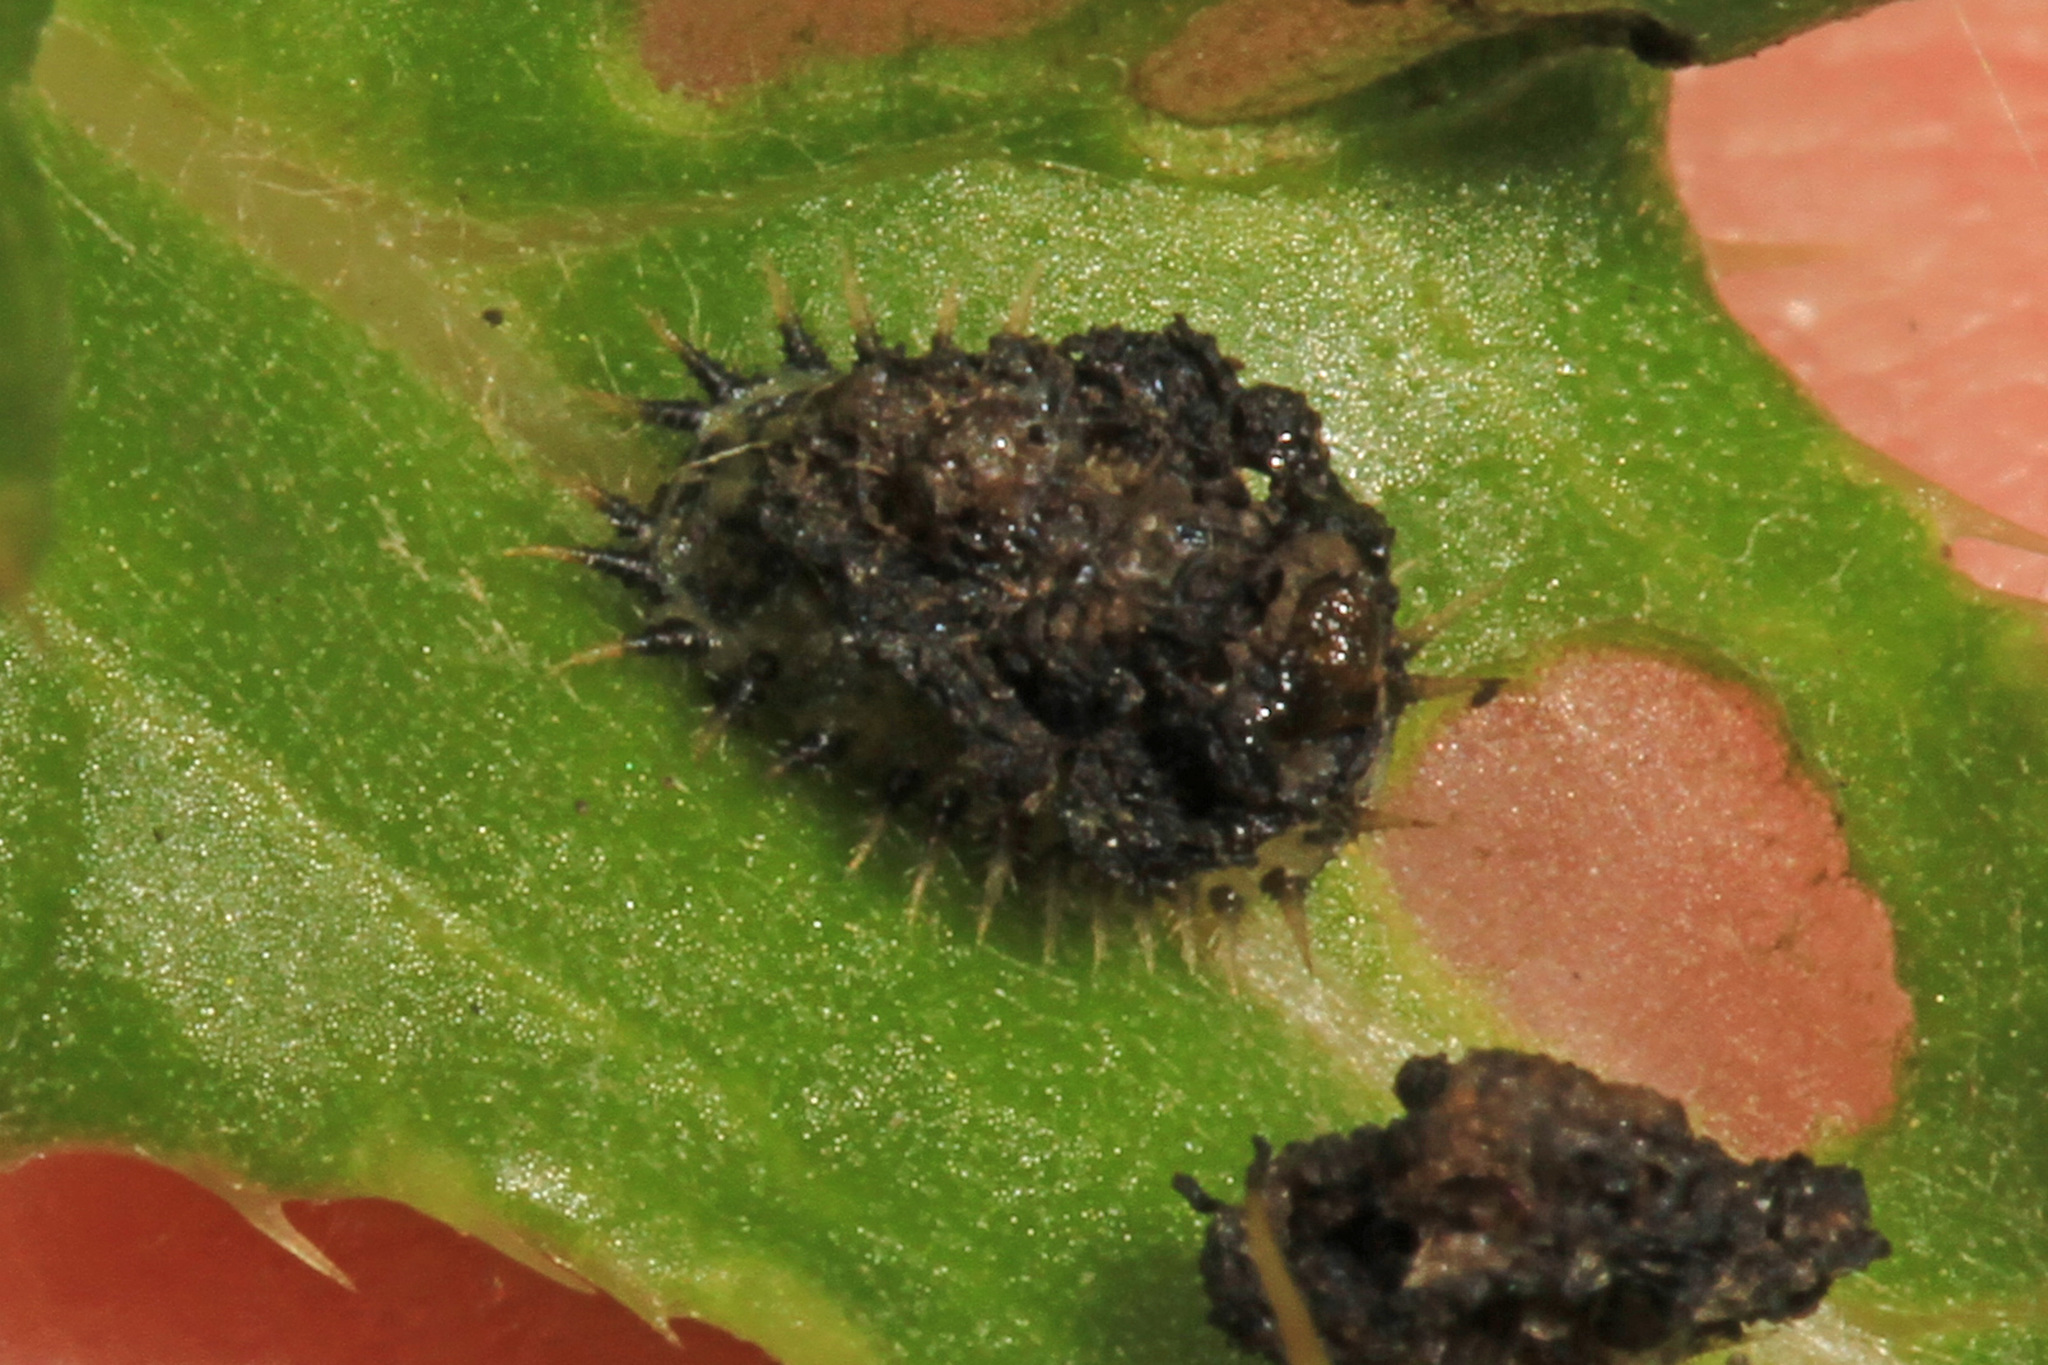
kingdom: Animalia
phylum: Arthropoda
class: Insecta
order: Coleoptera
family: Chrysomelidae
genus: Cassida
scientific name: Cassida rubiginosa
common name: Thistle tortoise beetle
